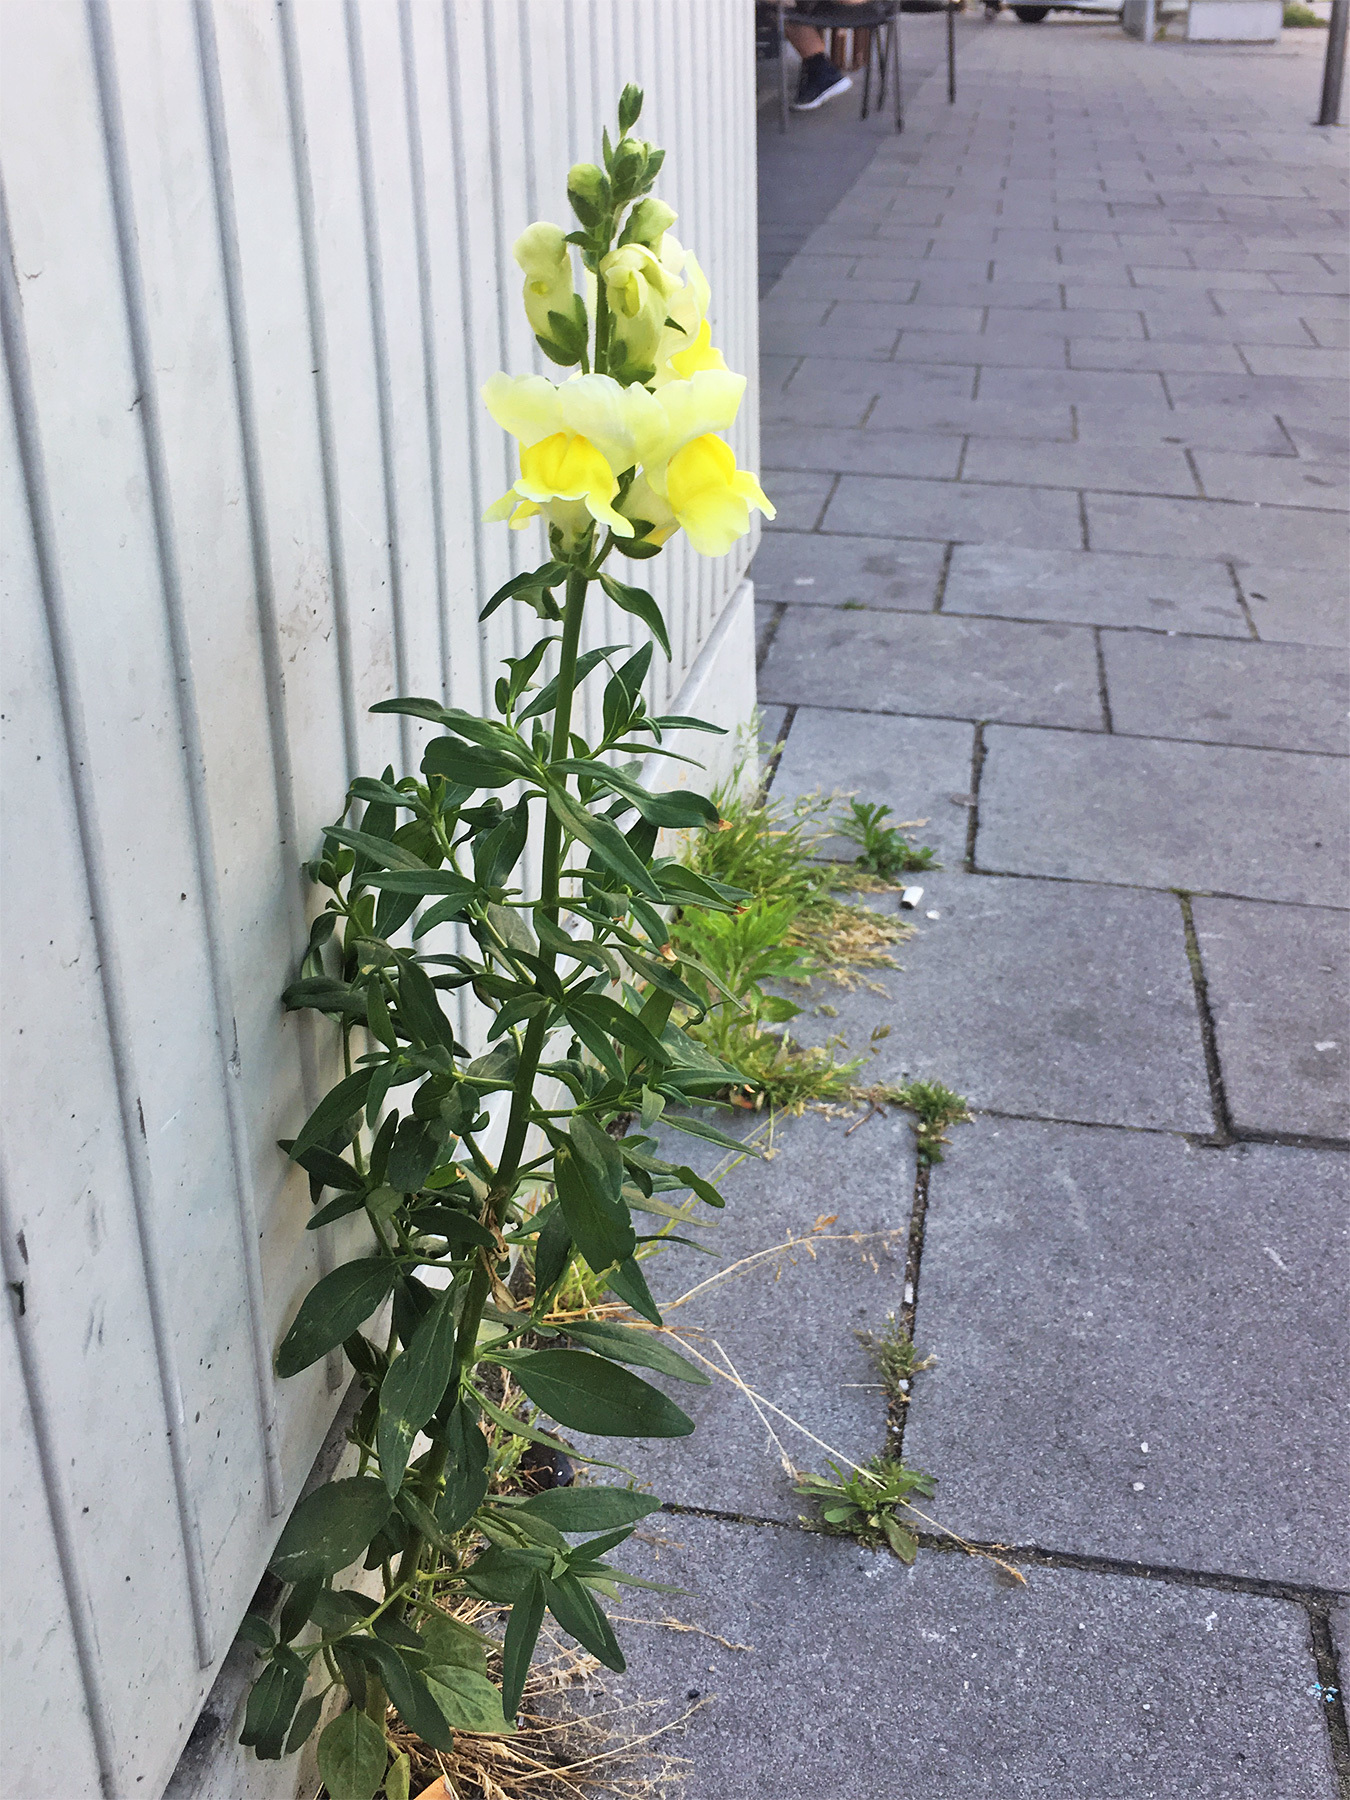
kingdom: Plantae
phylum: Tracheophyta
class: Magnoliopsida
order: Lamiales
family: Plantaginaceae
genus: Antirrhinum
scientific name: Antirrhinum majus
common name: Snapdragon
